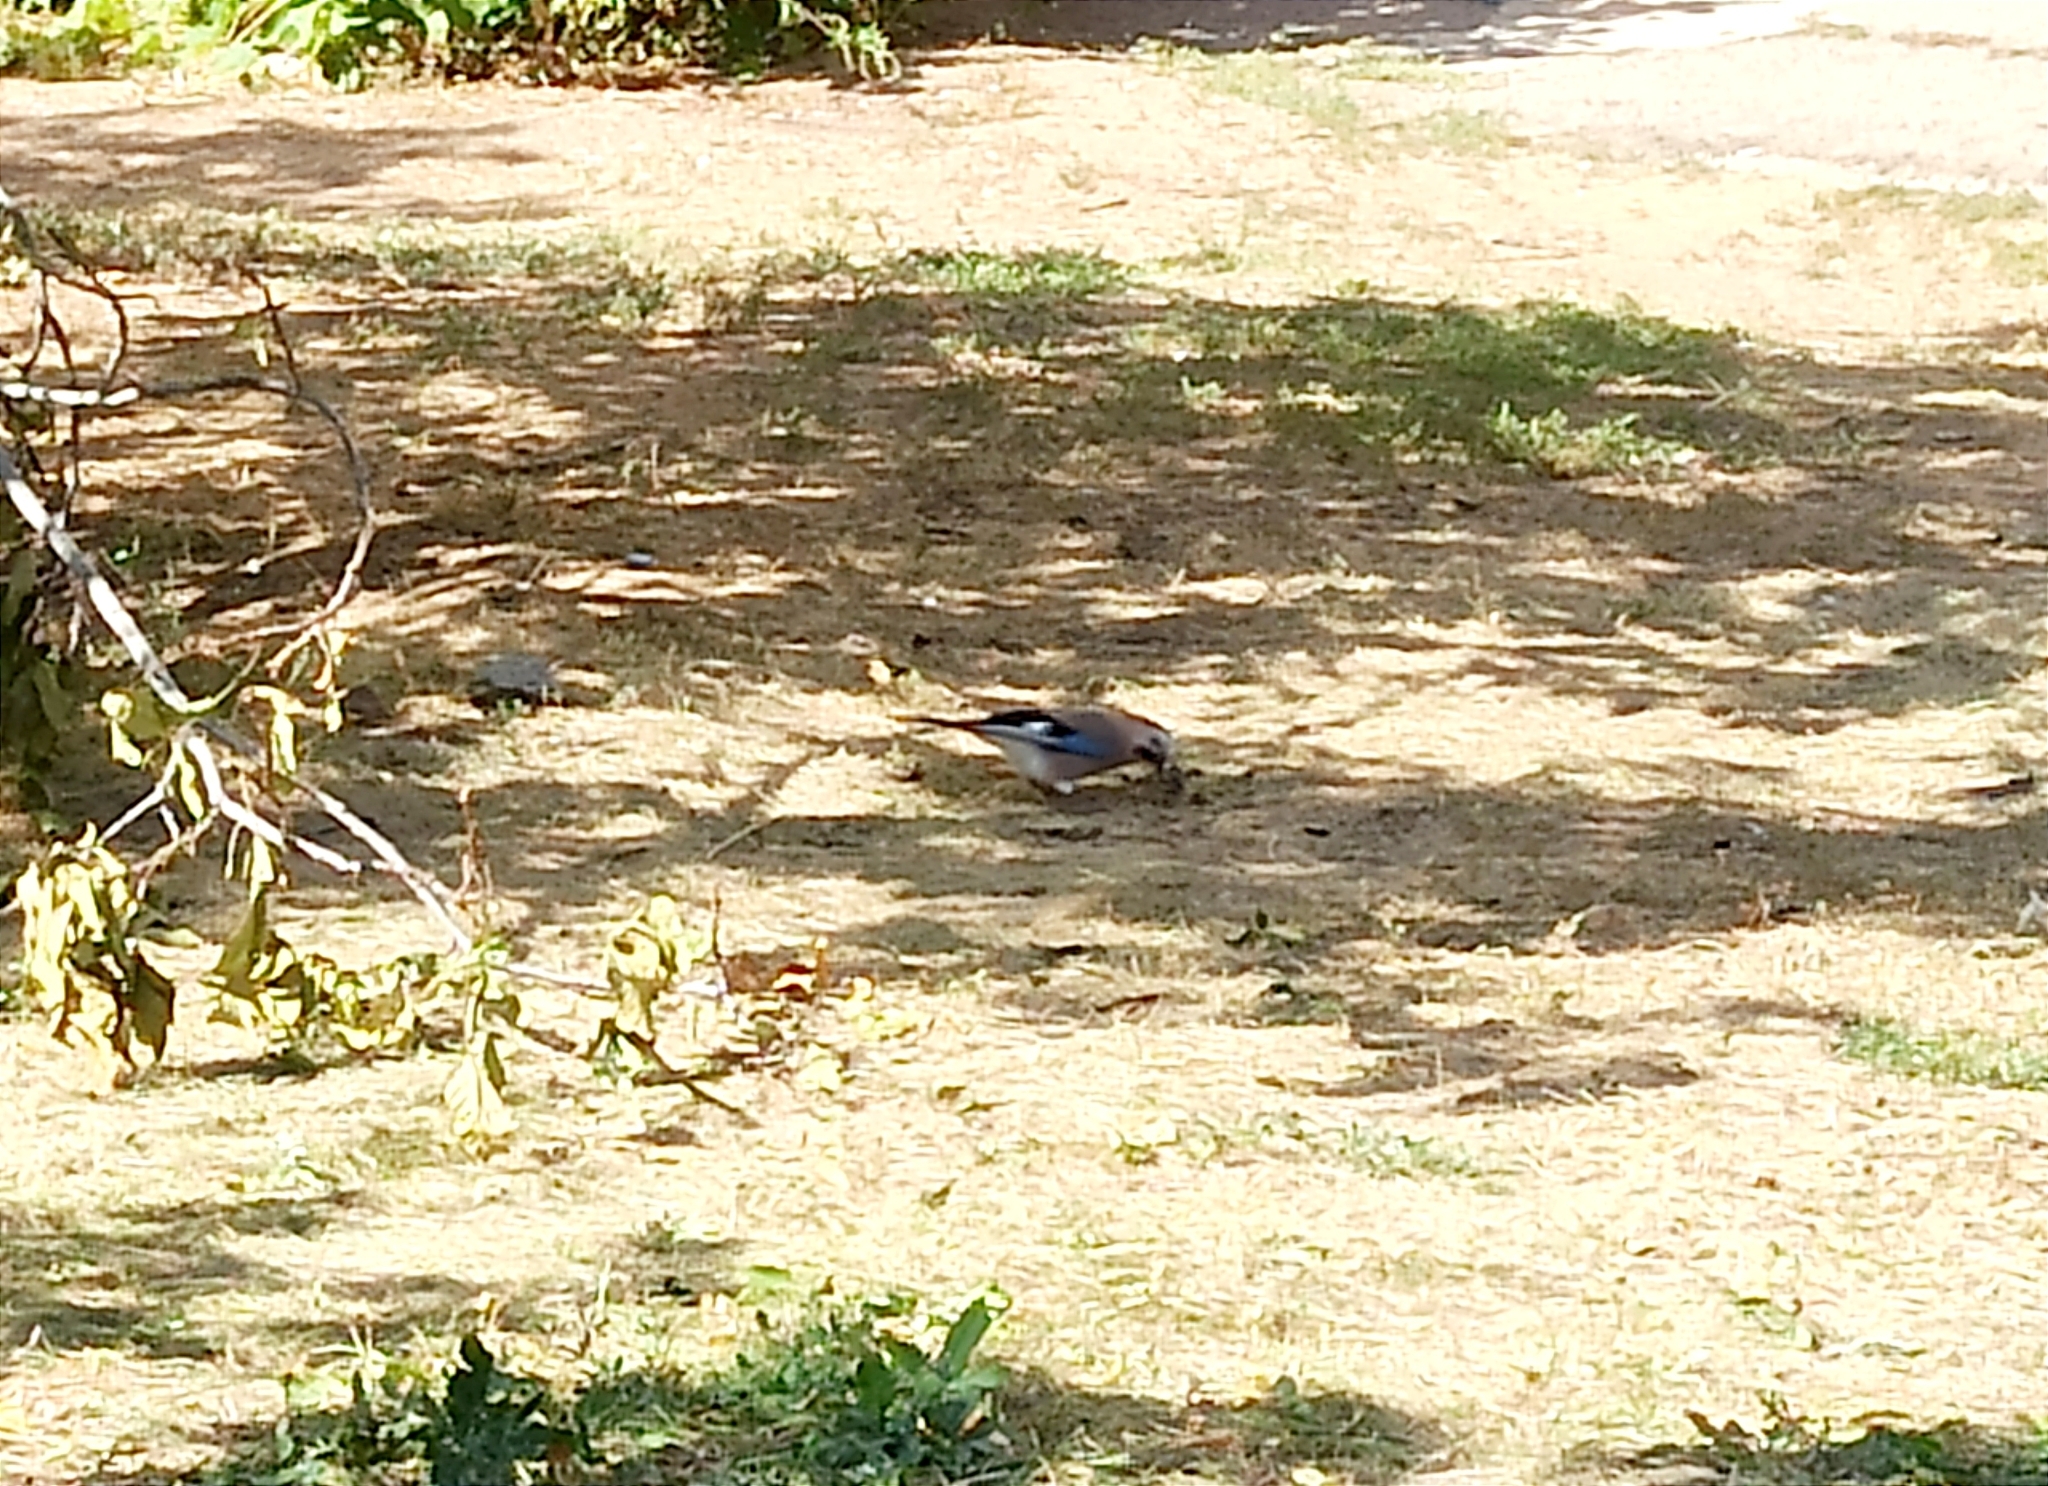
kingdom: Animalia
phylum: Chordata
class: Aves
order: Passeriformes
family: Corvidae
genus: Garrulus
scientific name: Garrulus glandarius
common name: Eurasian jay
